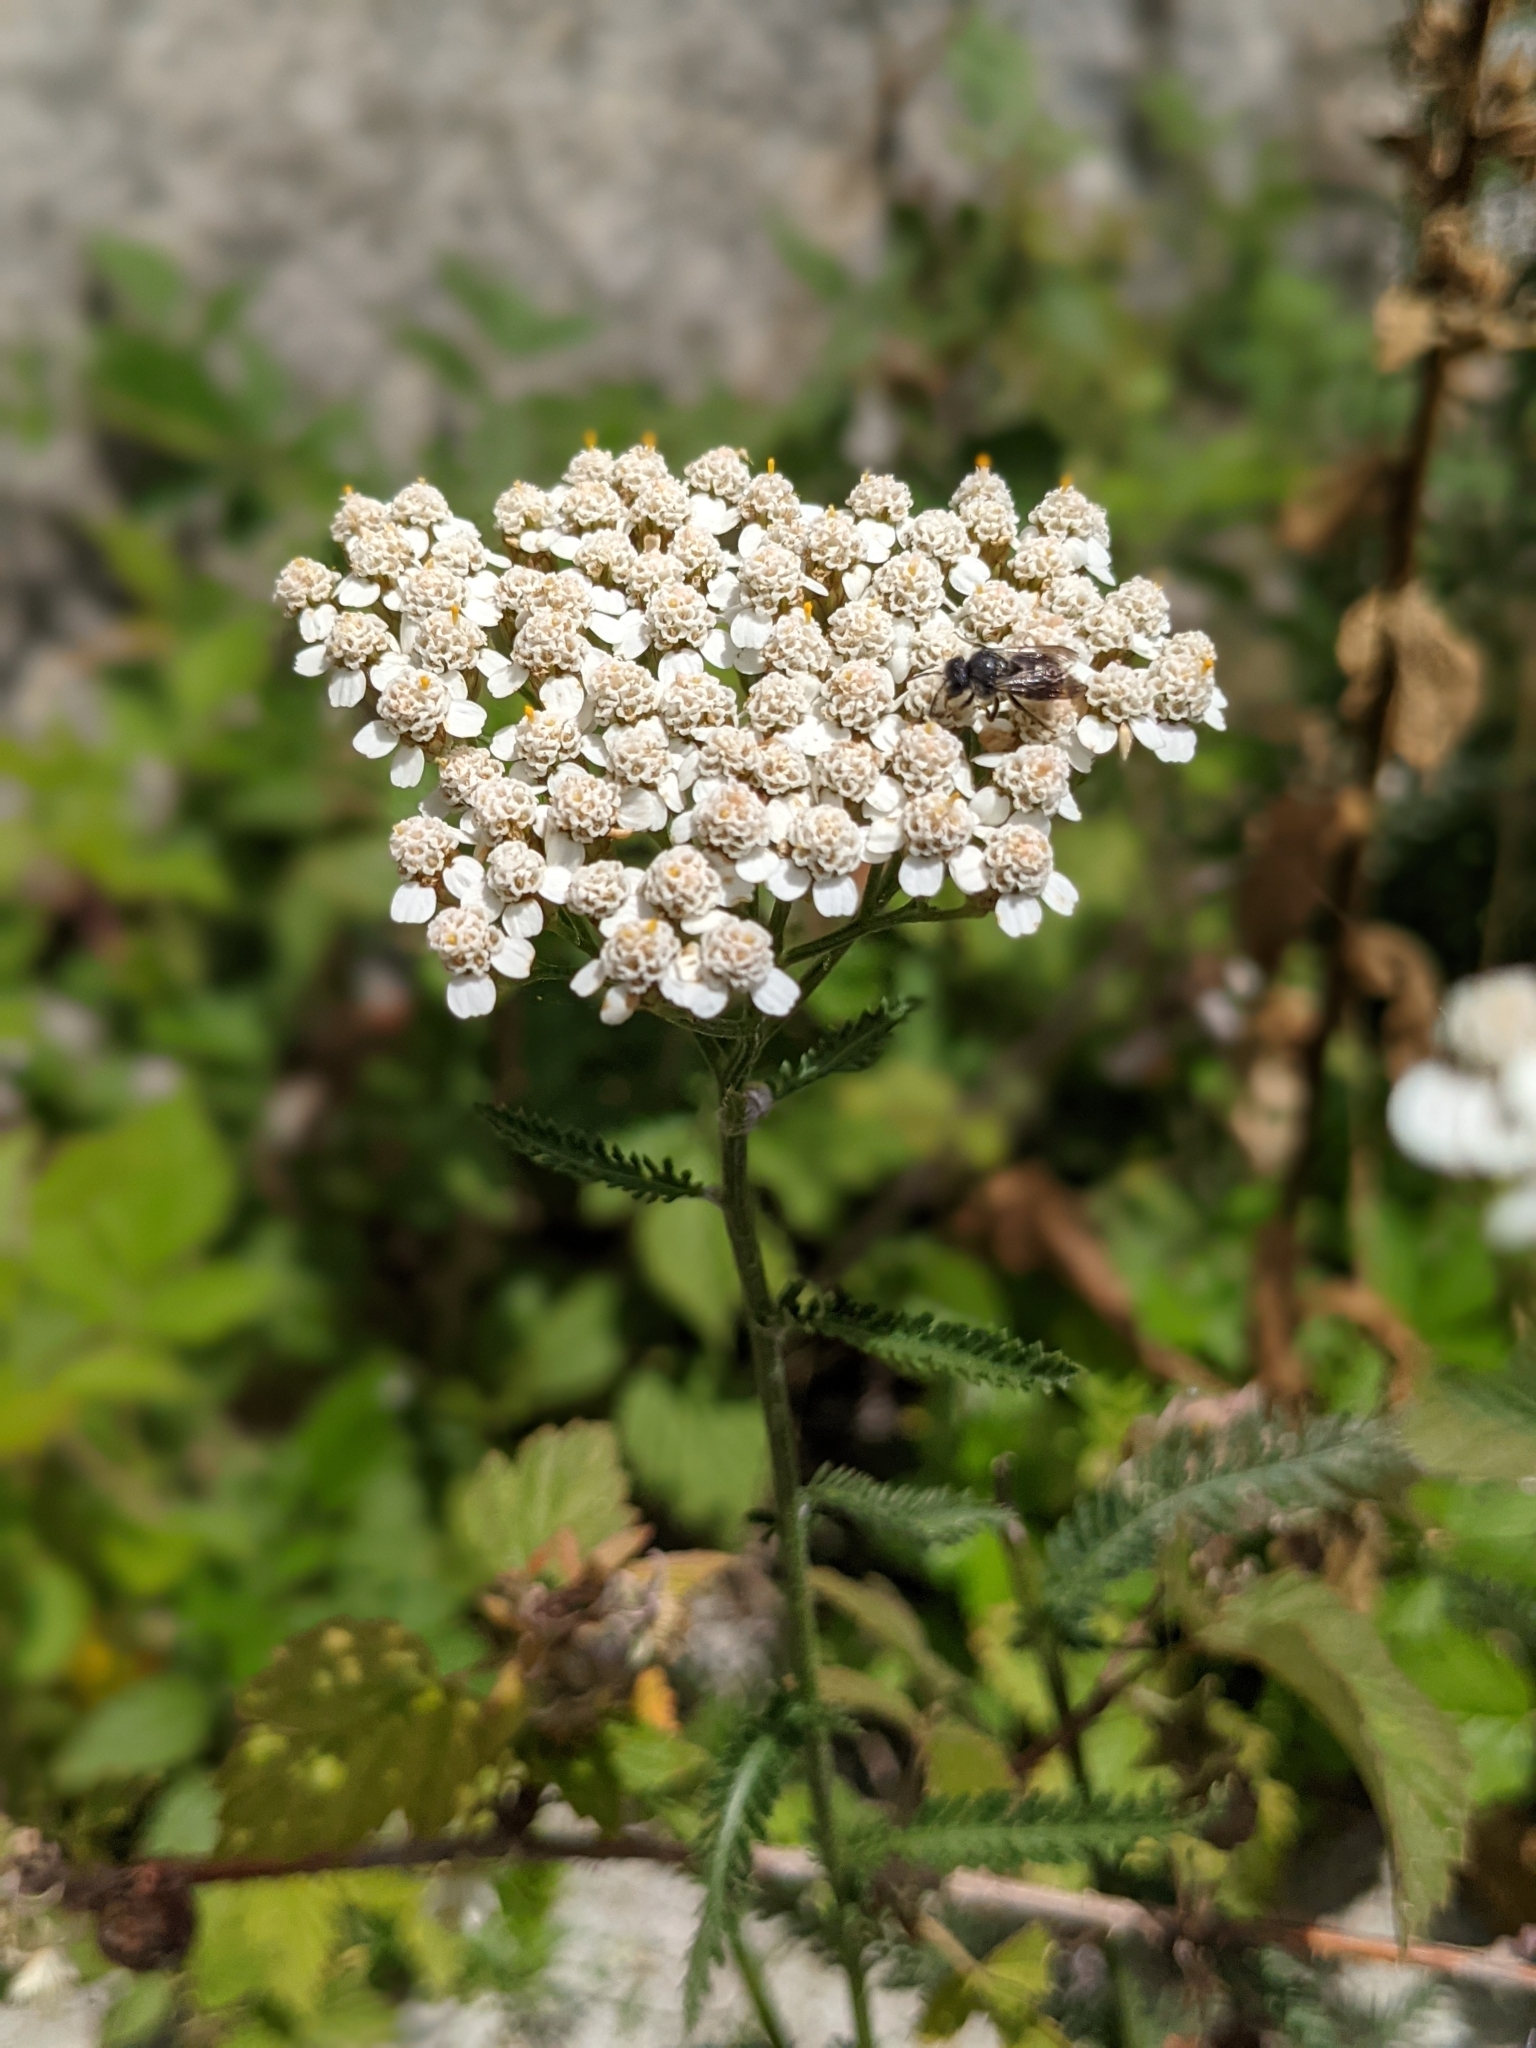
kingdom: Plantae
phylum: Tracheophyta
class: Magnoliopsida
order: Asterales
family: Asteraceae
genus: Achillea
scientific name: Achillea millefolium
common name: Yarrow
